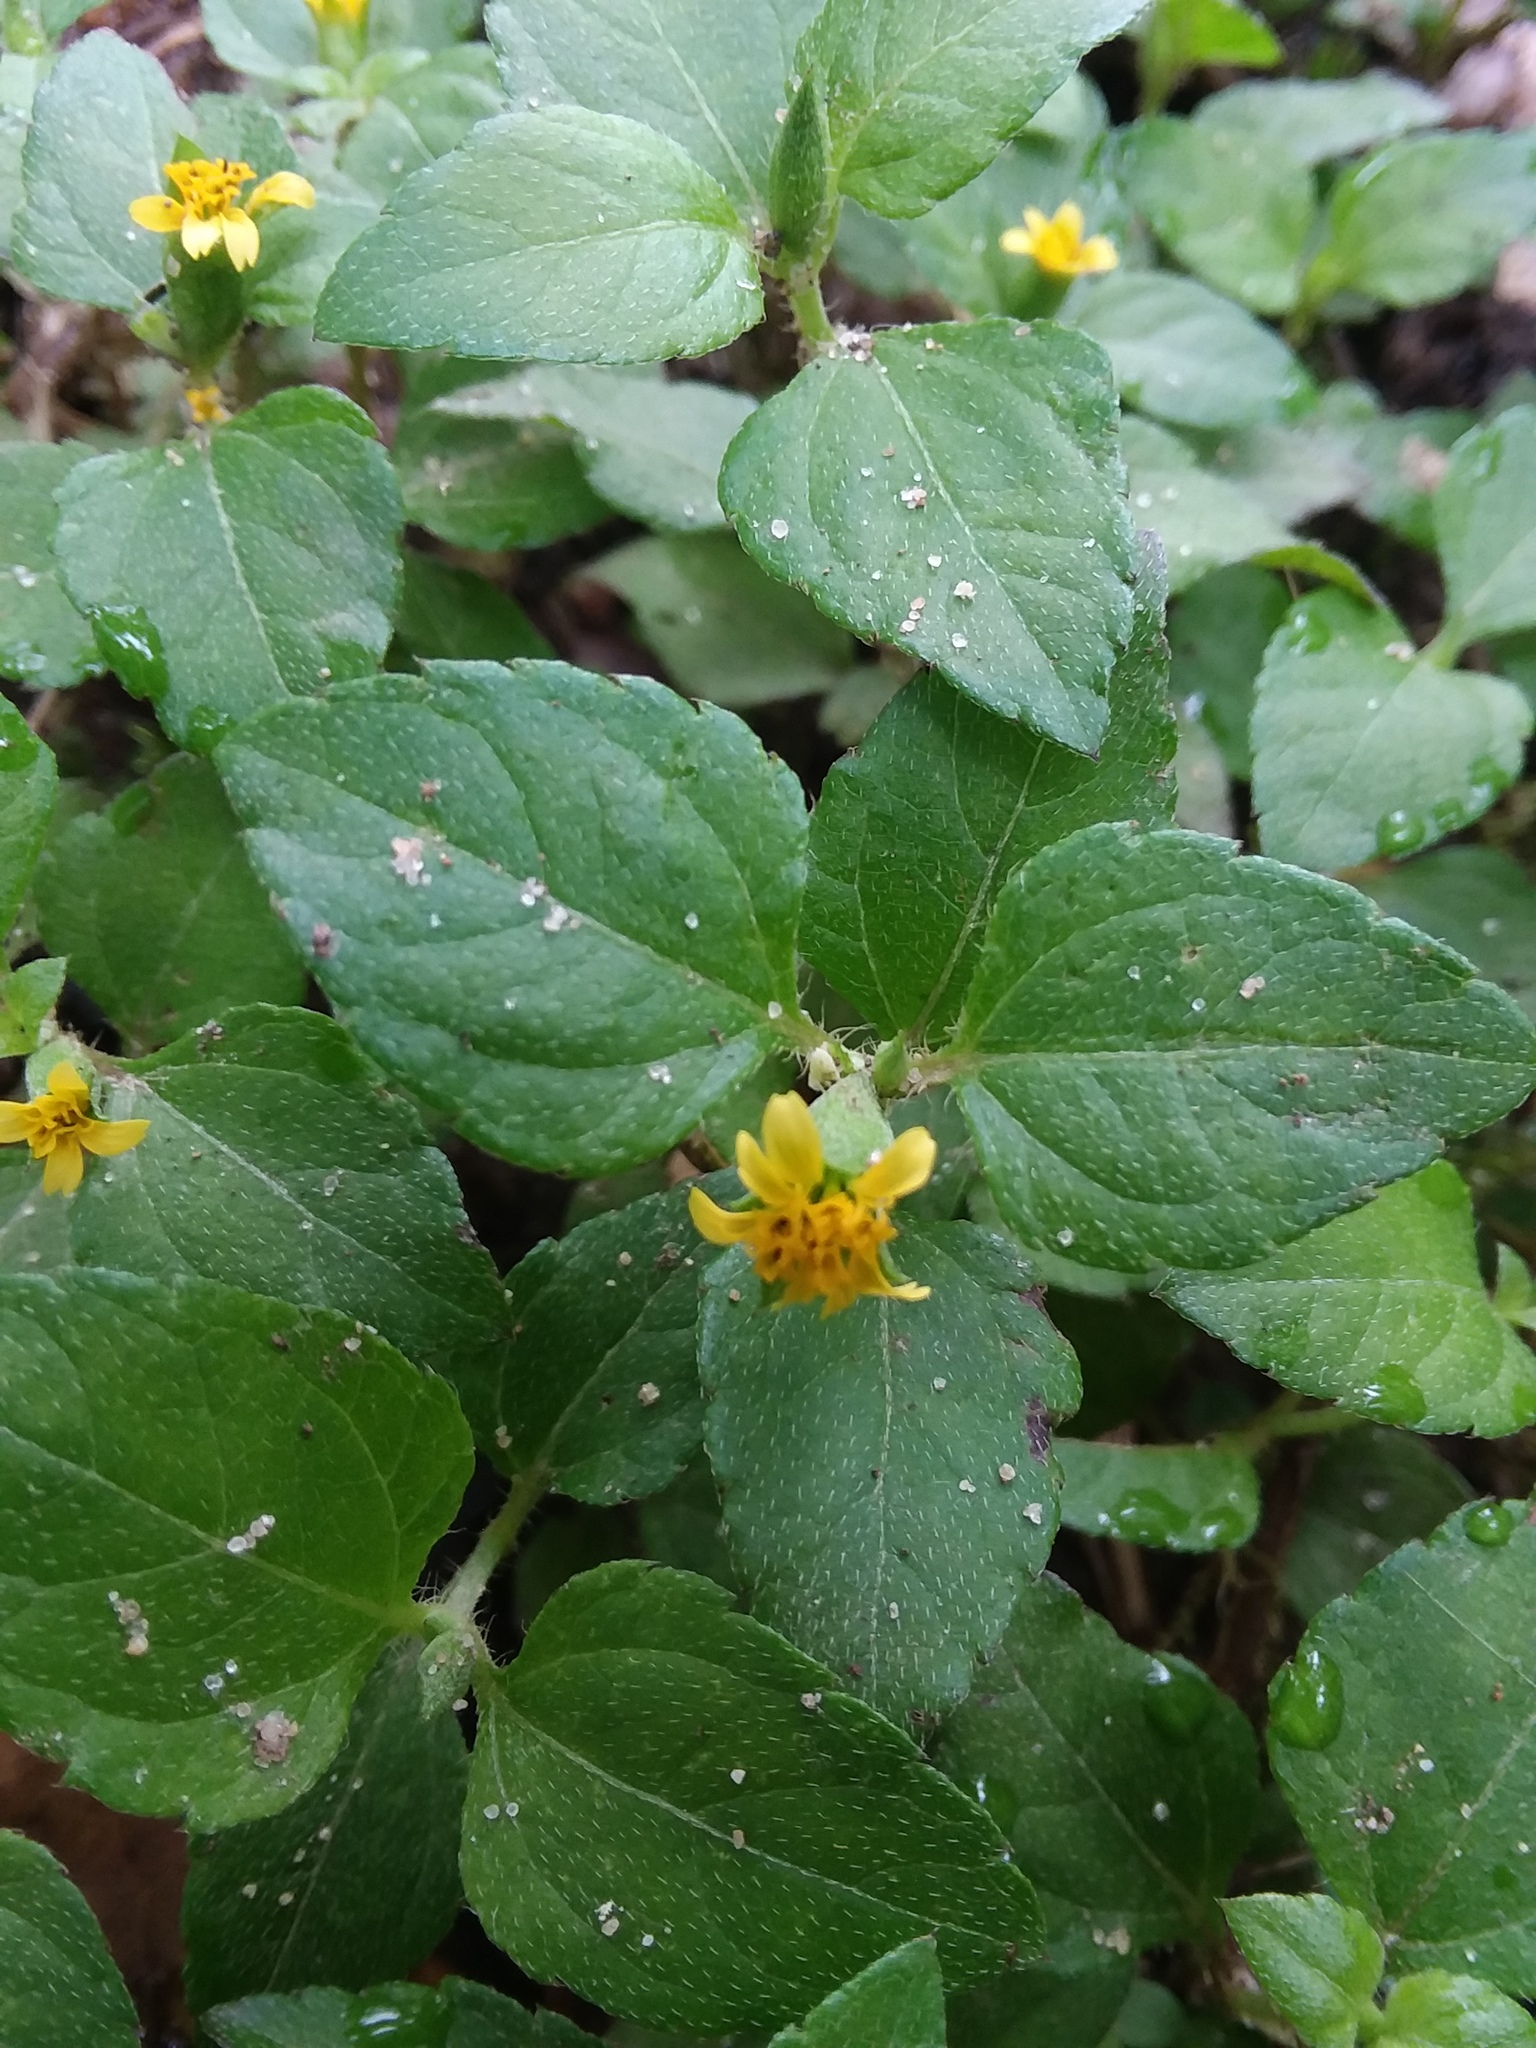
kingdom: Plantae
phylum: Tracheophyta
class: Magnoliopsida
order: Asterales
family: Asteraceae
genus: Calyptocarpus
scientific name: Calyptocarpus vialis
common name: Straggler daisy
